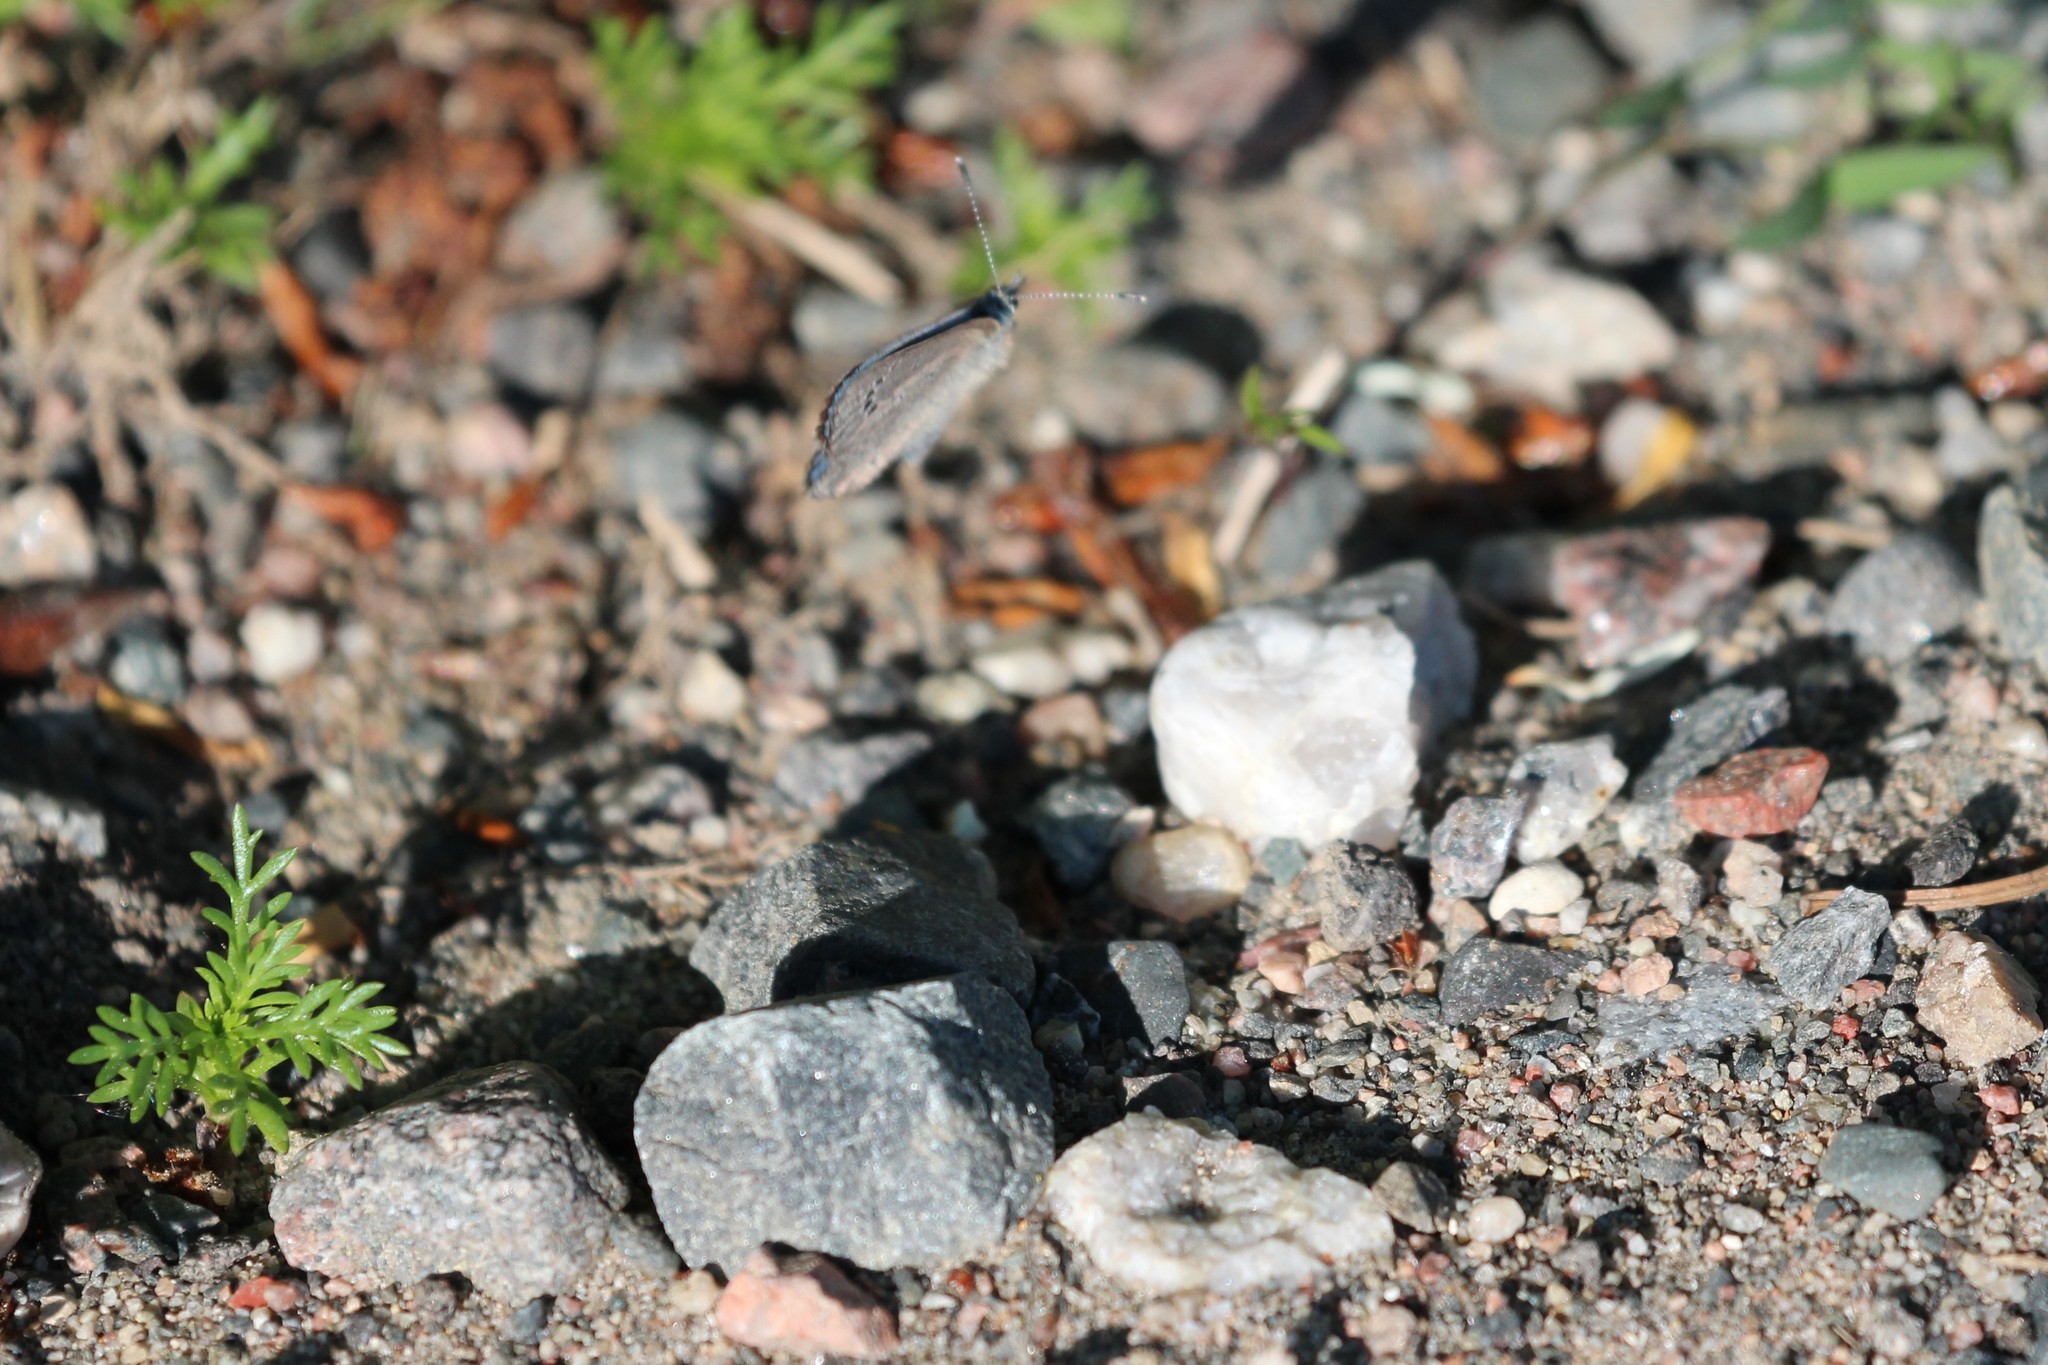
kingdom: Animalia
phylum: Arthropoda
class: Insecta
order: Lepidoptera
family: Lycaenidae
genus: Glaucopsyche
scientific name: Glaucopsyche lygdamus
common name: Silvery blue
